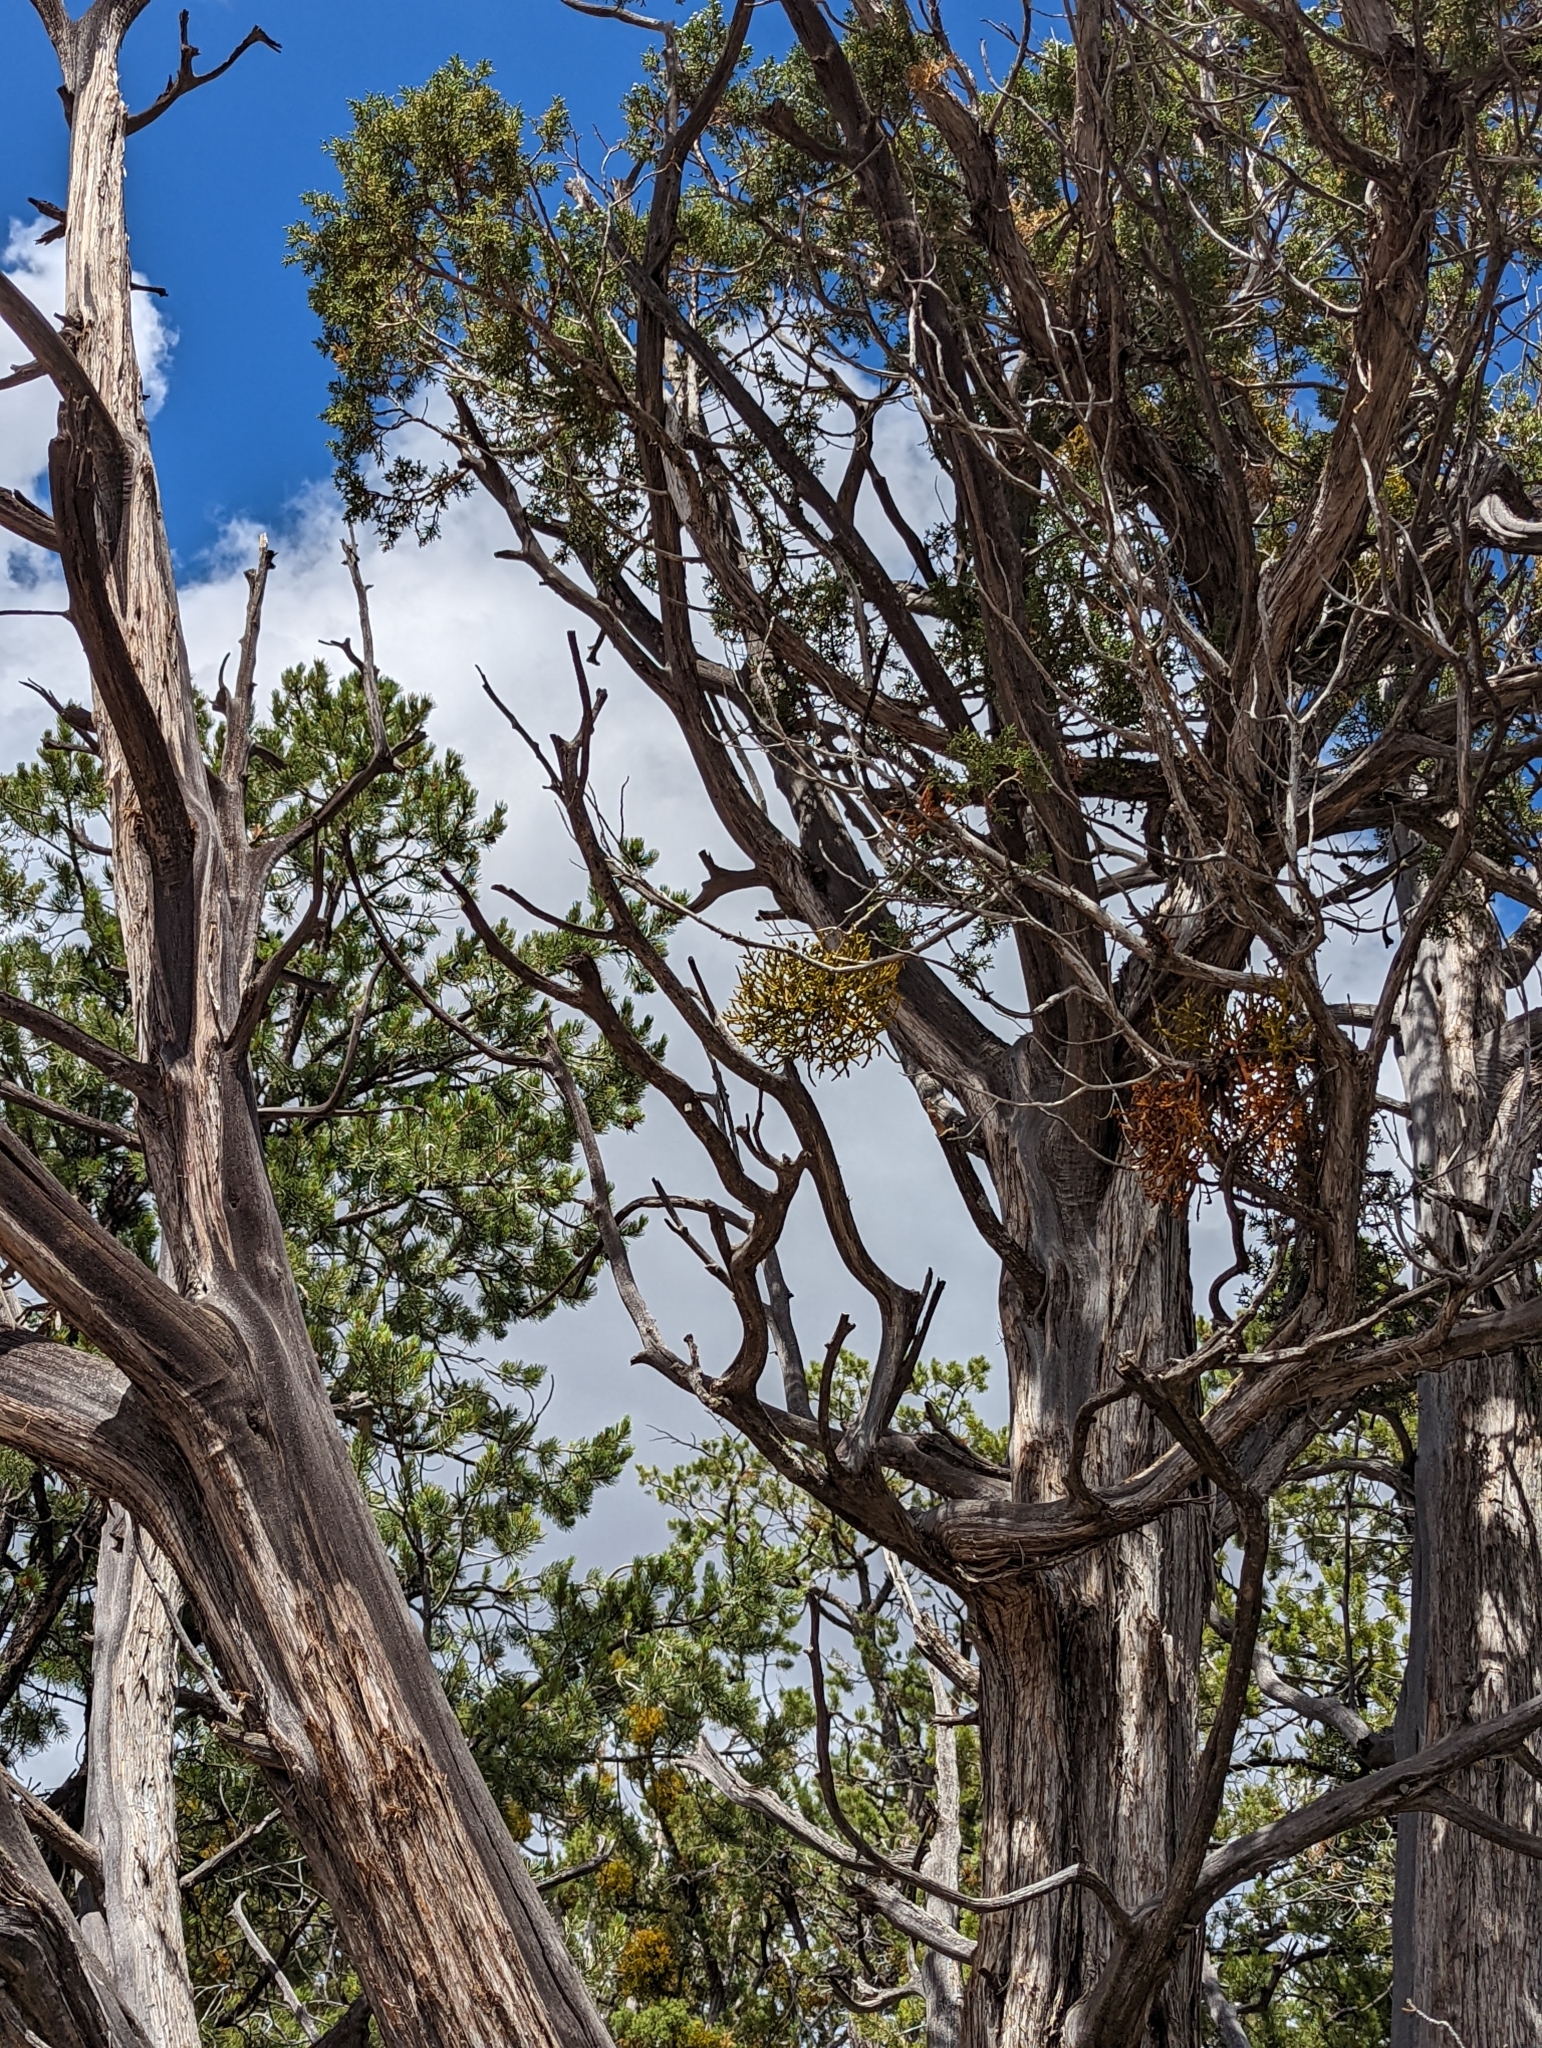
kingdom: Plantae
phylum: Tracheophyta
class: Magnoliopsida
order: Santalales
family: Viscaceae
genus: Phoradendron
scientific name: Phoradendron juniperinum
